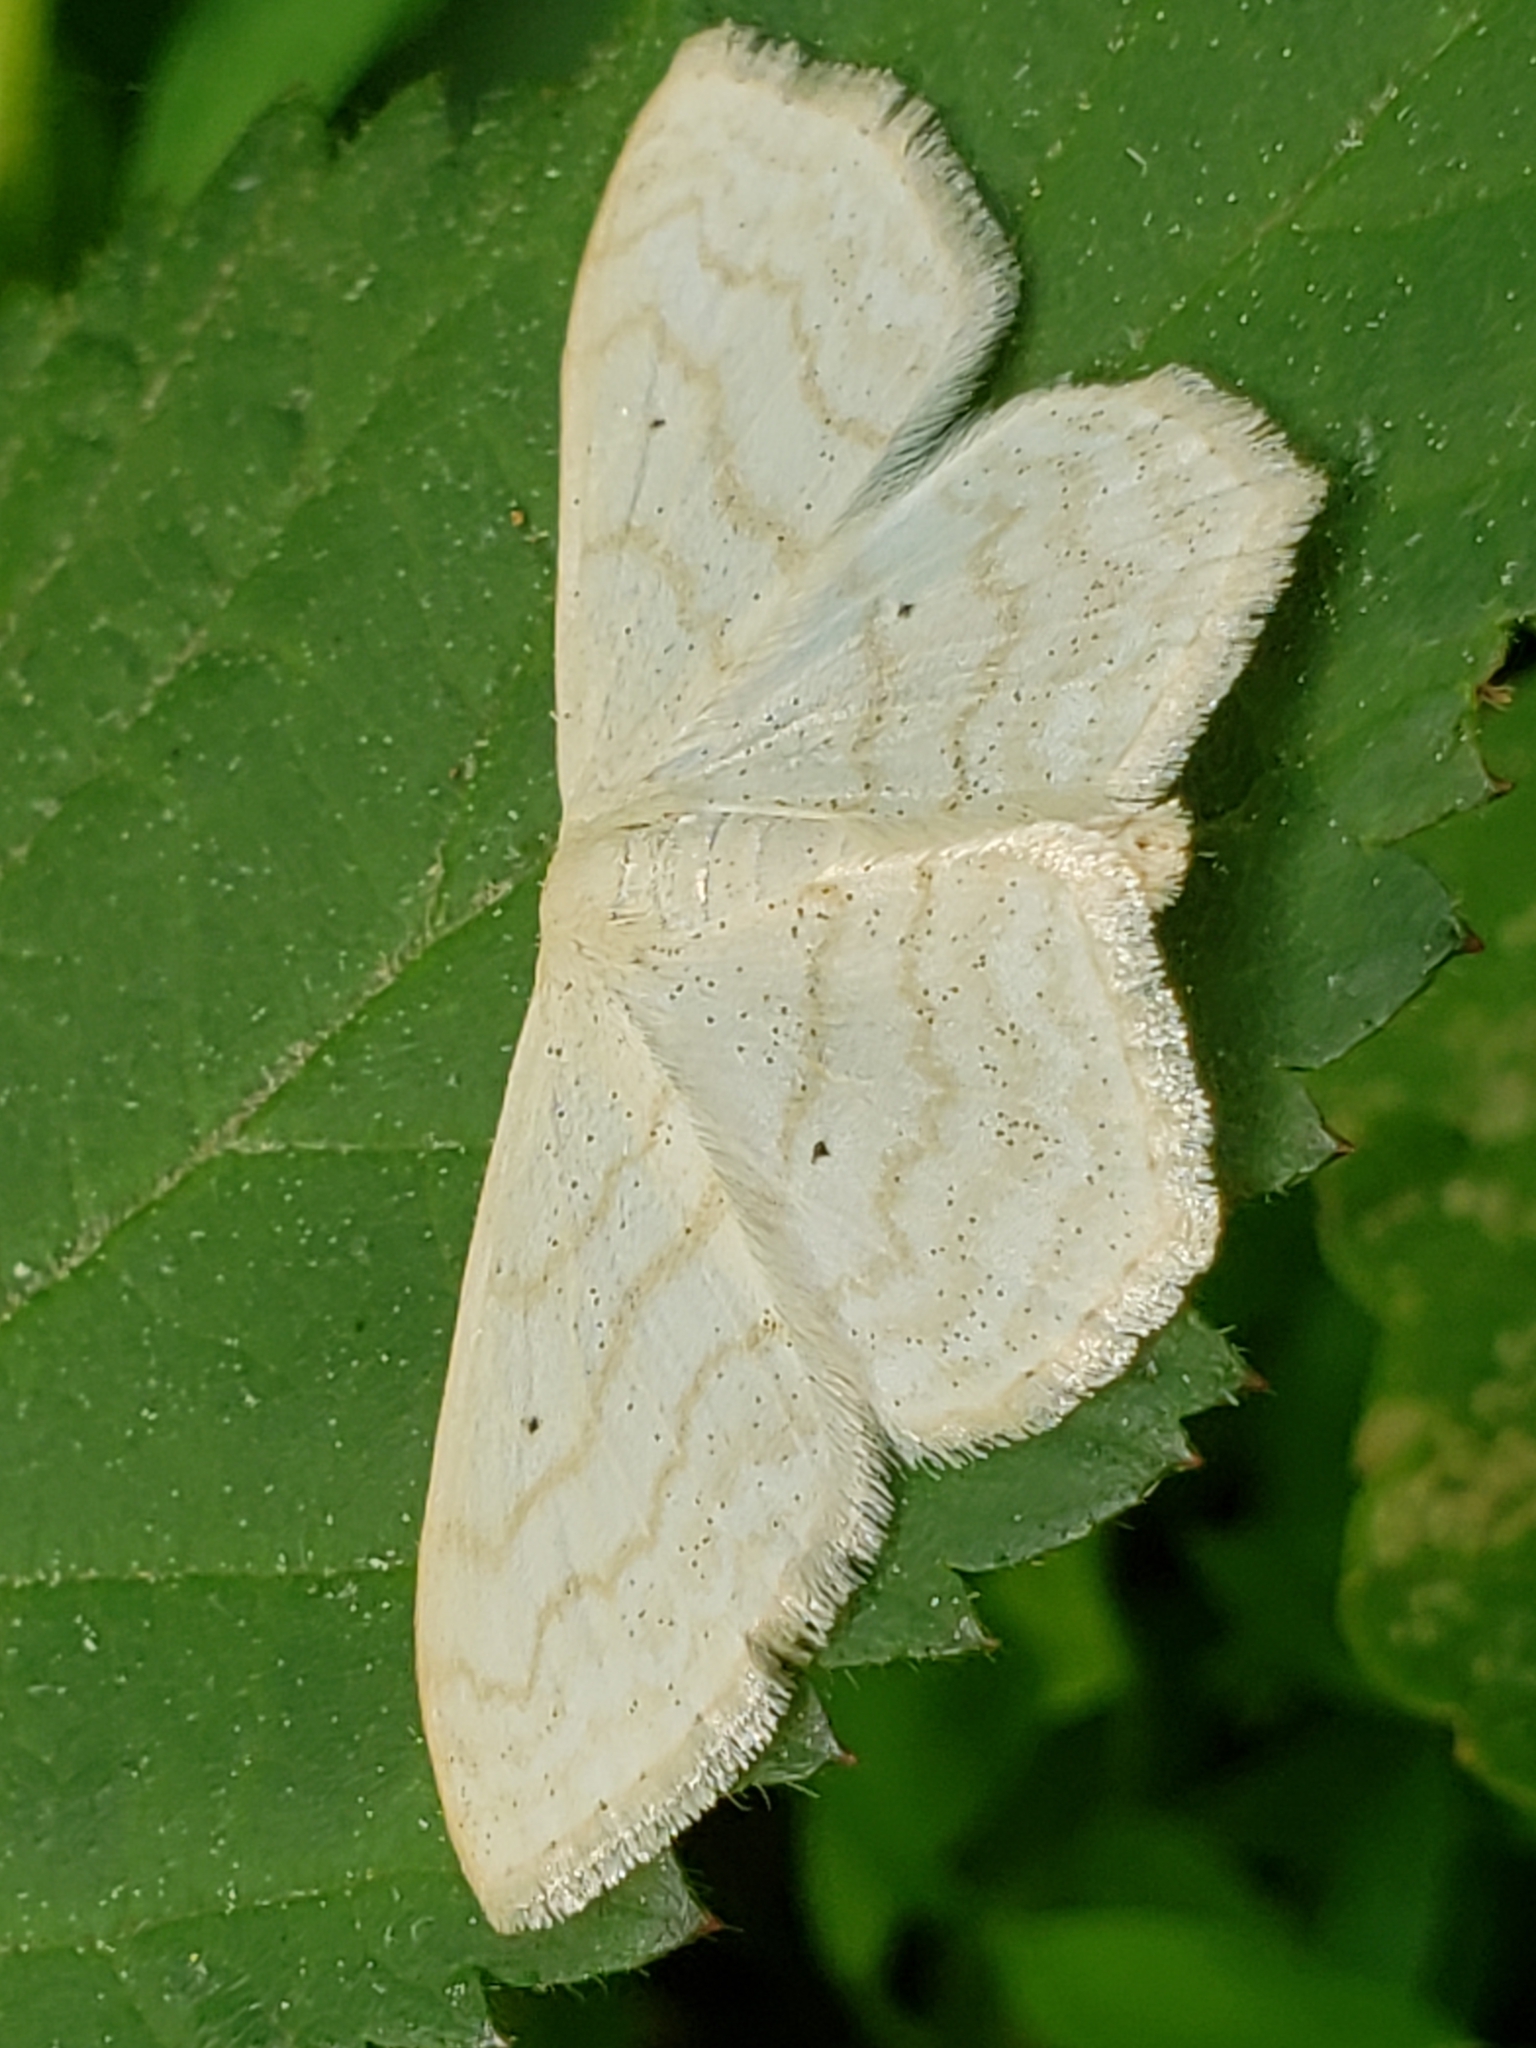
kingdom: Animalia
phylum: Arthropoda
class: Insecta
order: Lepidoptera
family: Geometridae
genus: Scopula
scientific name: Scopula limboundata
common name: Large lace border
